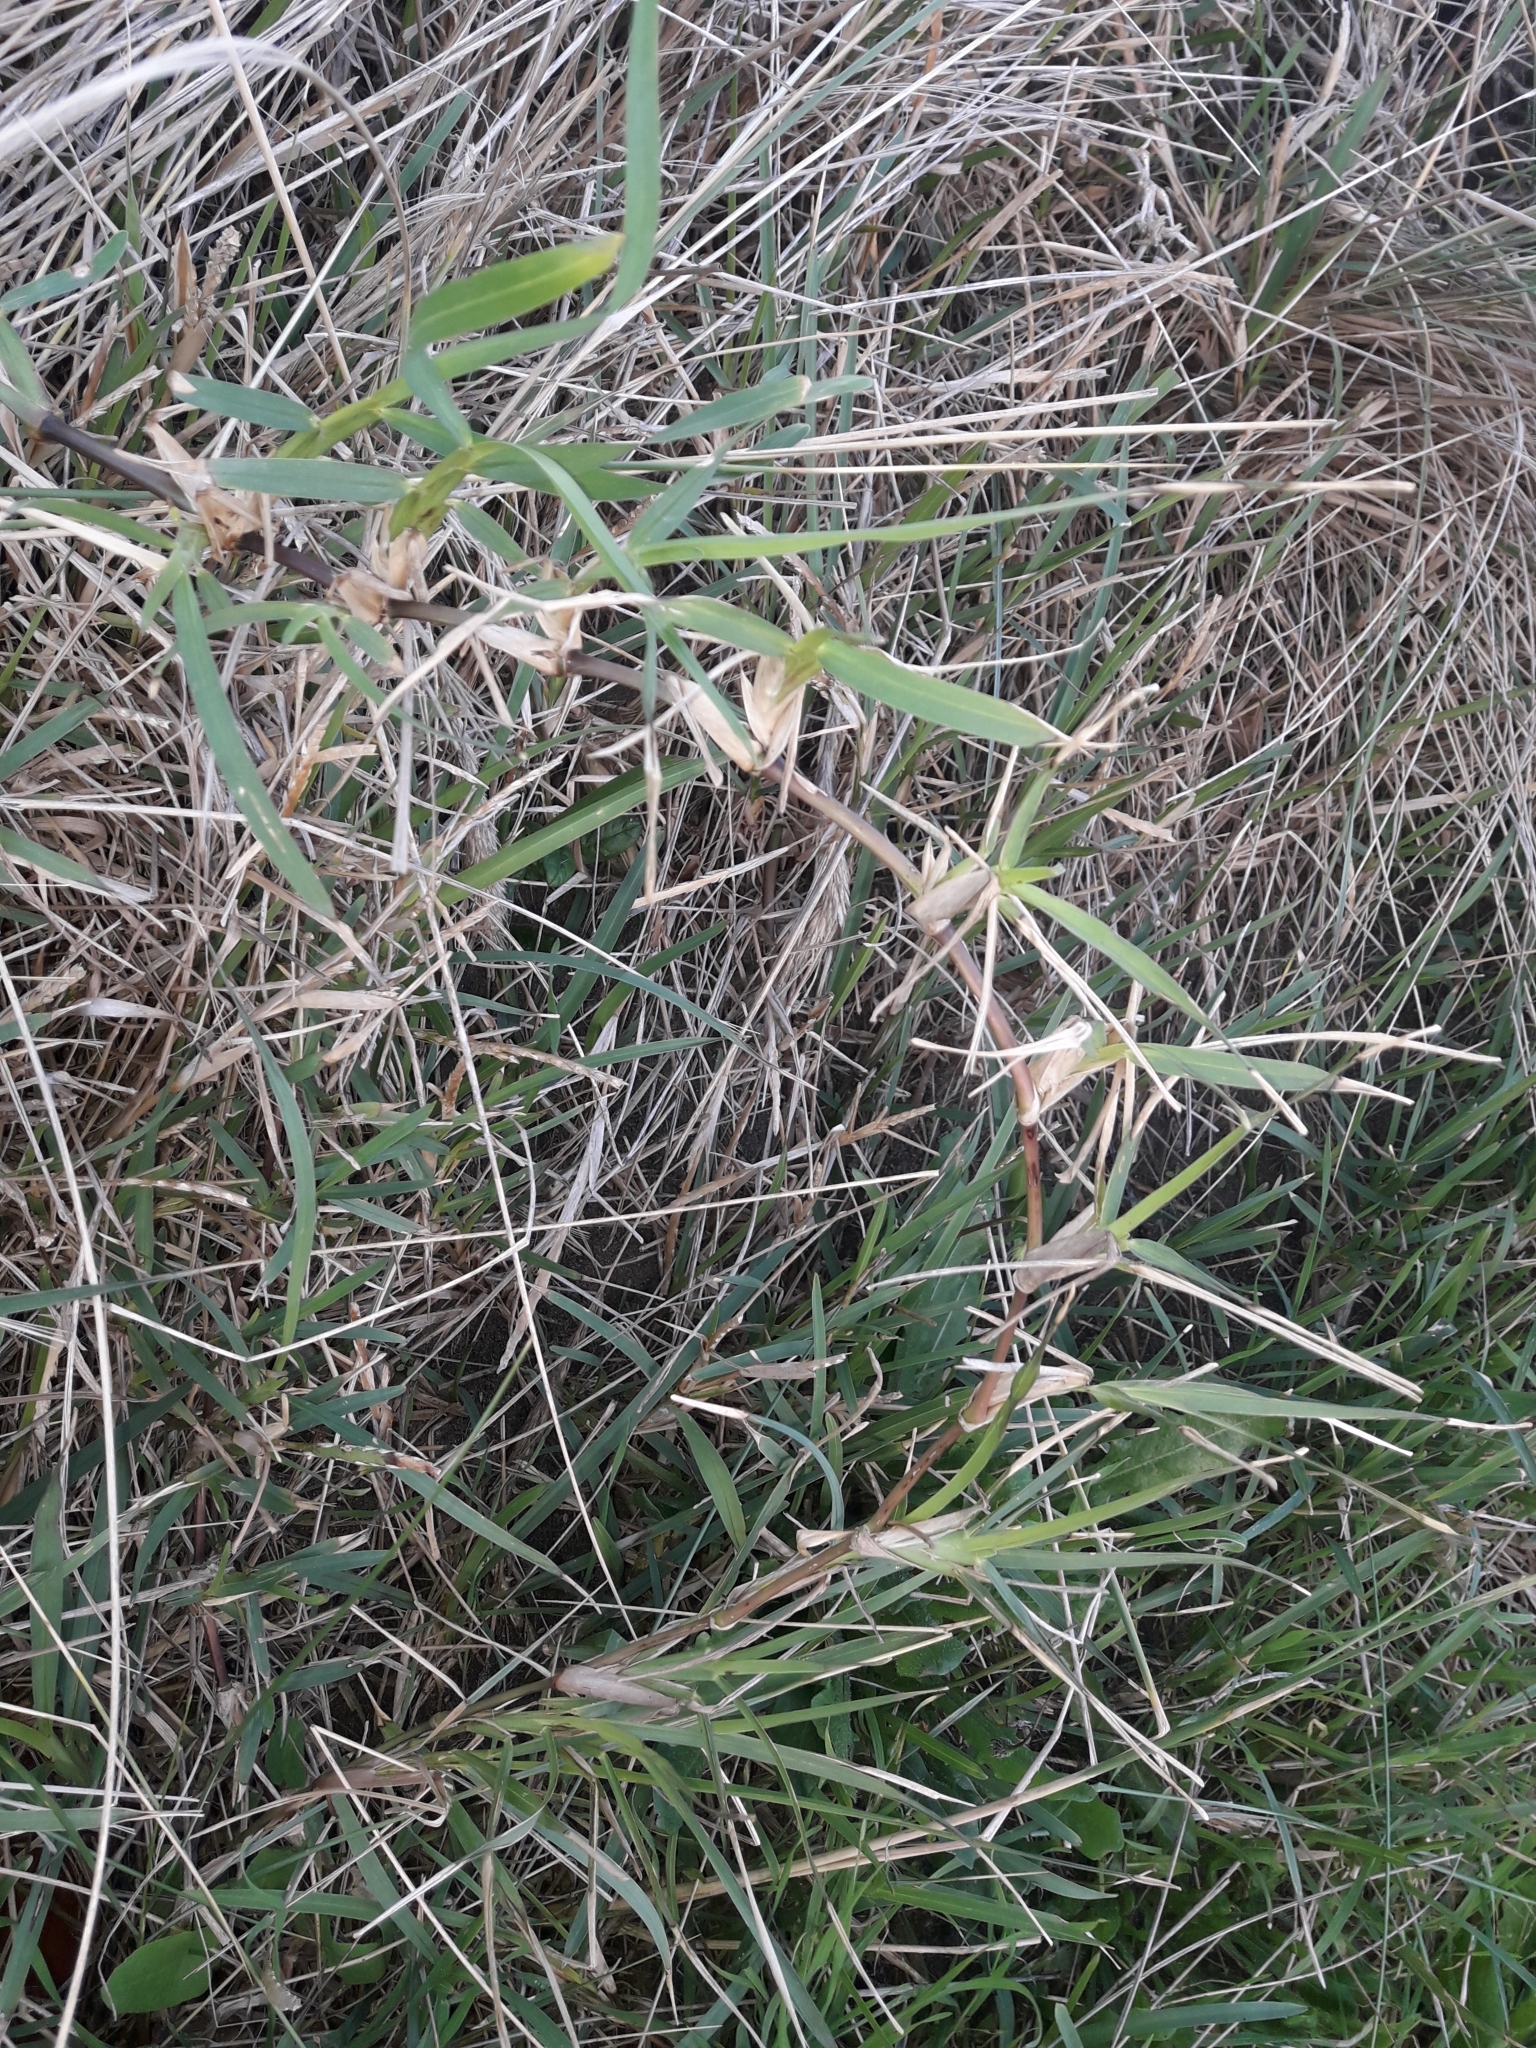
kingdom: Plantae
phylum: Tracheophyta
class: Liliopsida
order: Poales
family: Poaceae
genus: Stenotaphrum
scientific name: Stenotaphrum secundatum
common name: St. augustine grass
